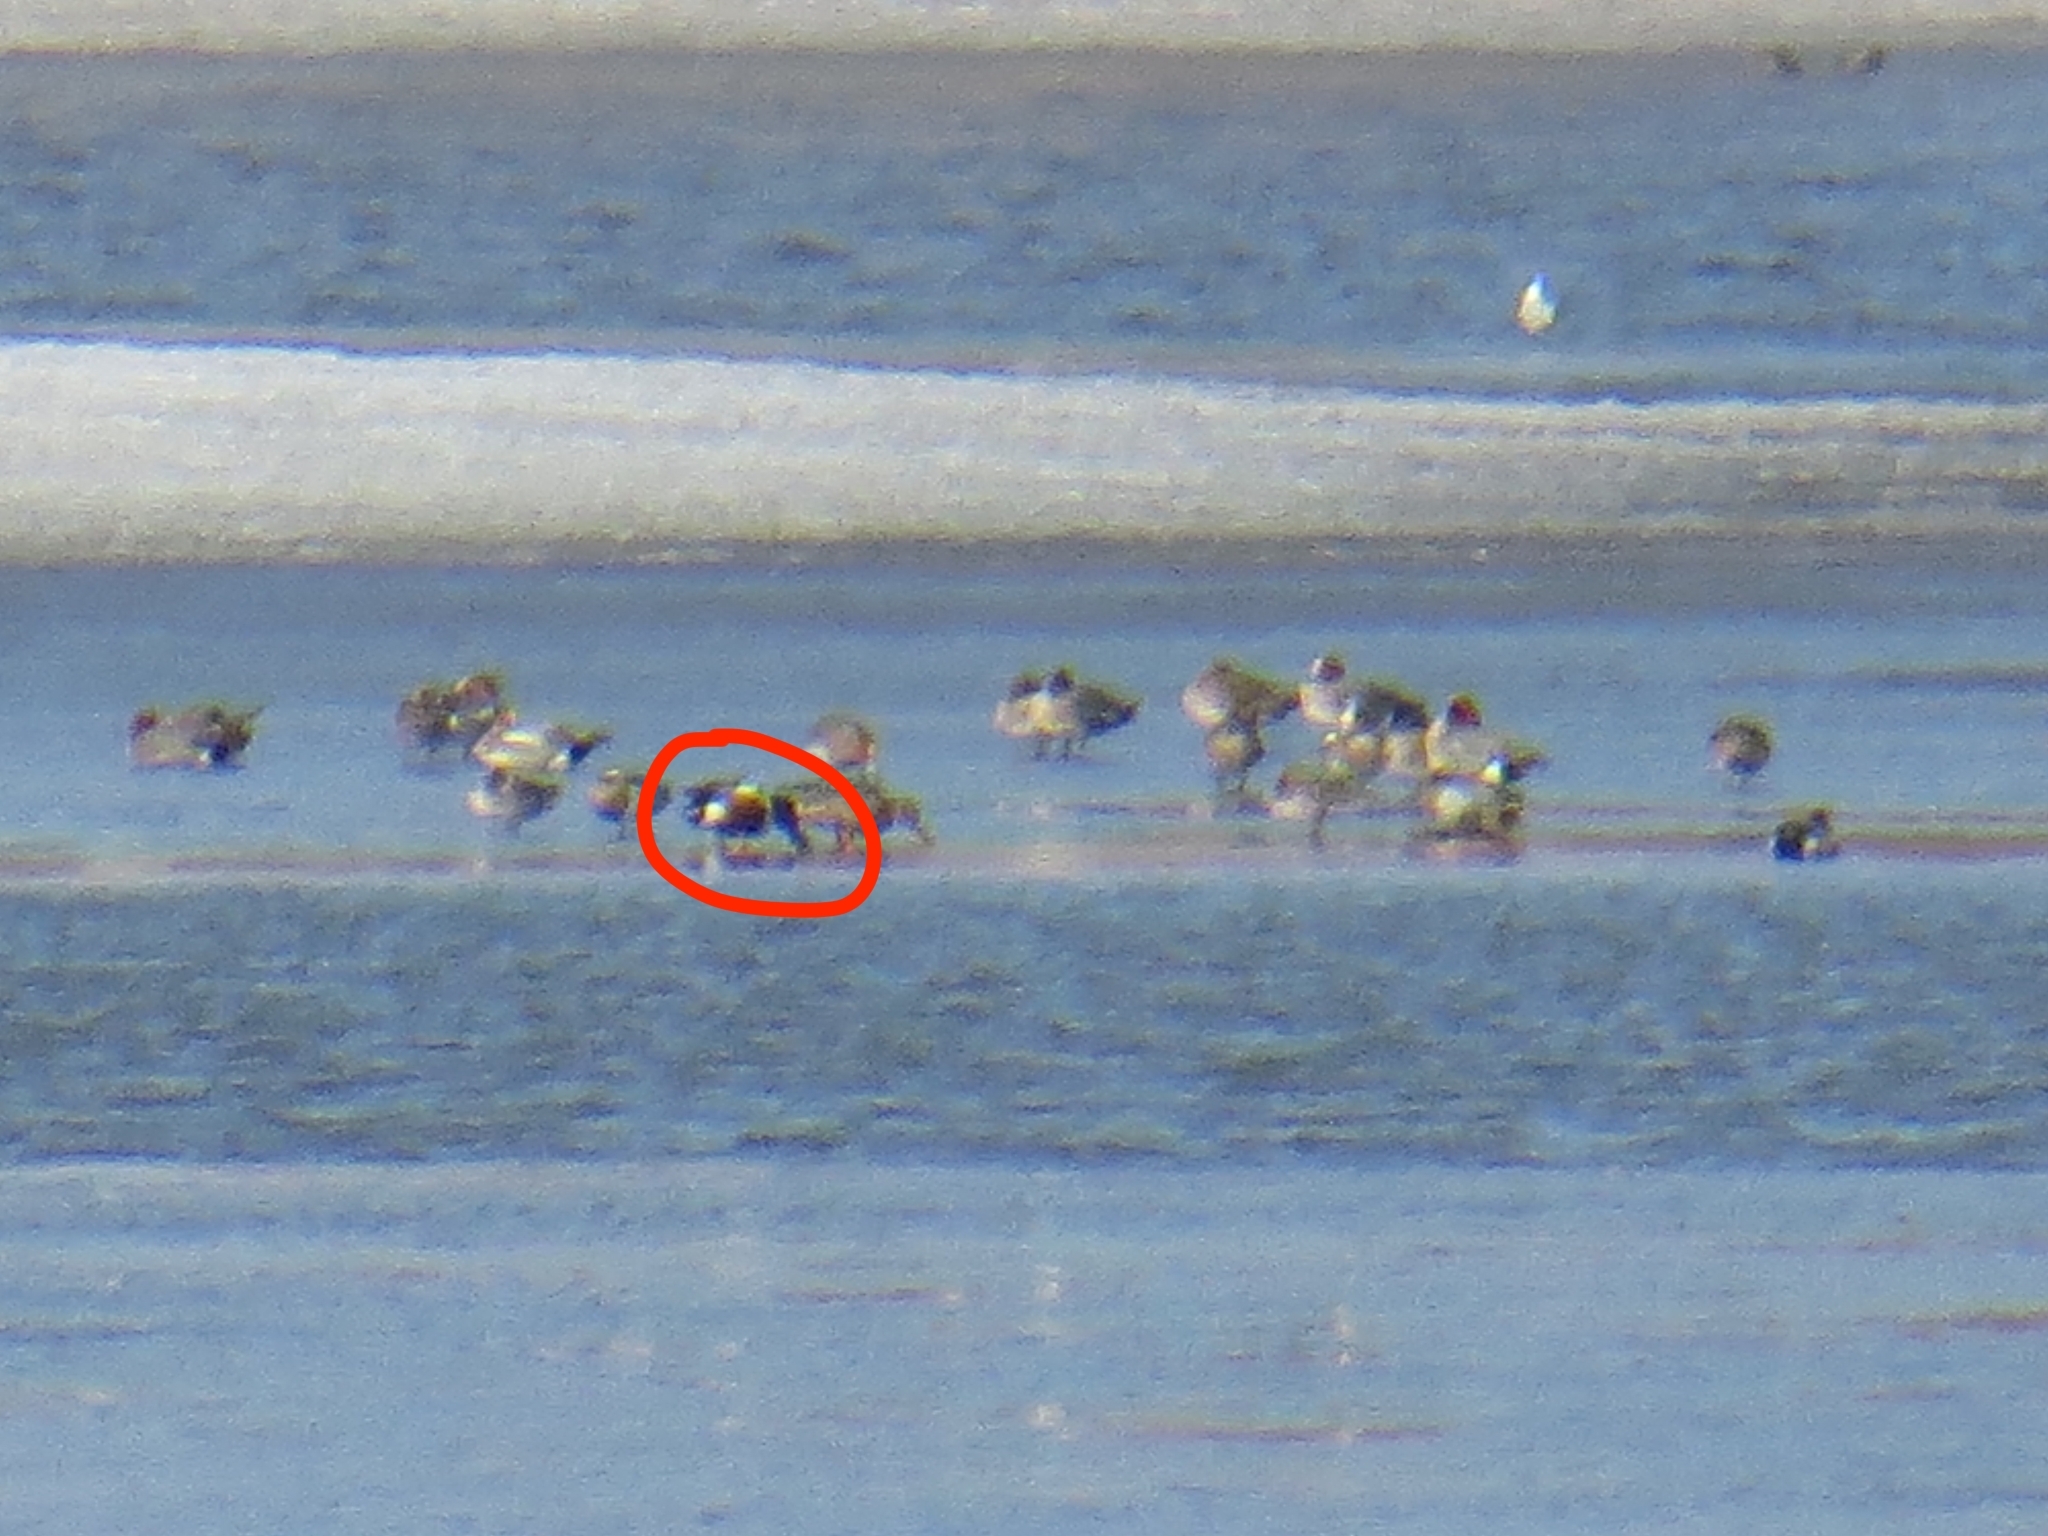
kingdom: Animalia
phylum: Chordata
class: Aves
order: Anseriformes
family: Anatidae
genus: Spatula
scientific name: Spatula clypeata
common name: Northern shoveler
